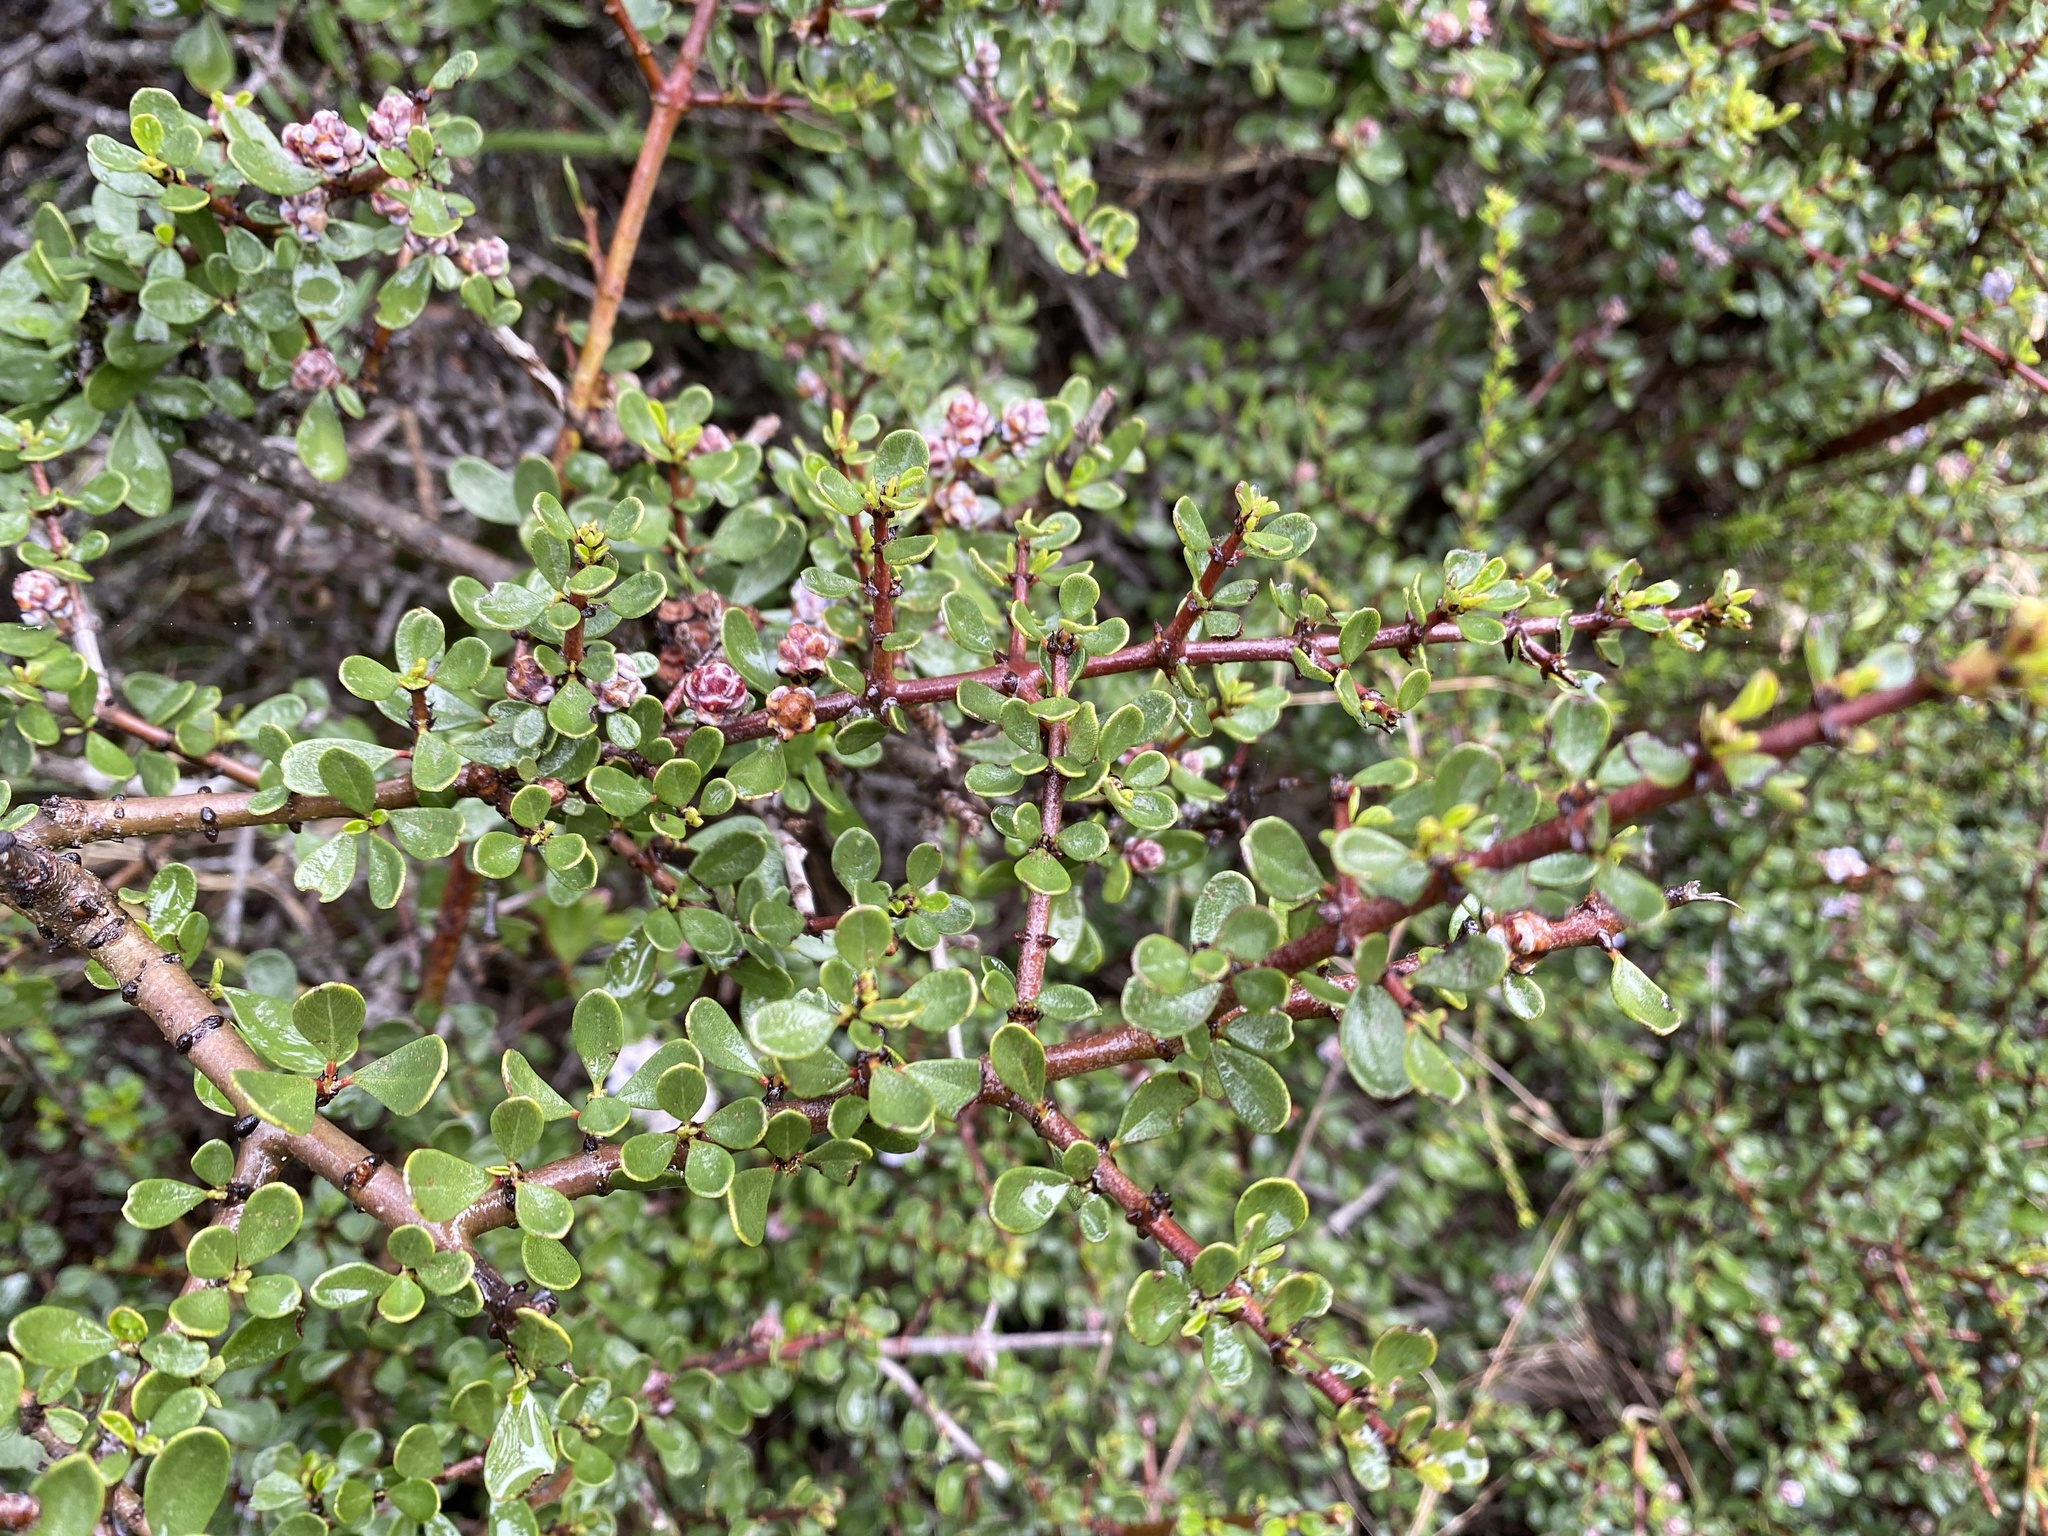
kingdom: Plantae
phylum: Tracheophyta
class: Magnoliopsida
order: Rosales
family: Rhamnaceae
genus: Ceanothus
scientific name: Ceanothus cuneatus
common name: Cuneate ceanothus
